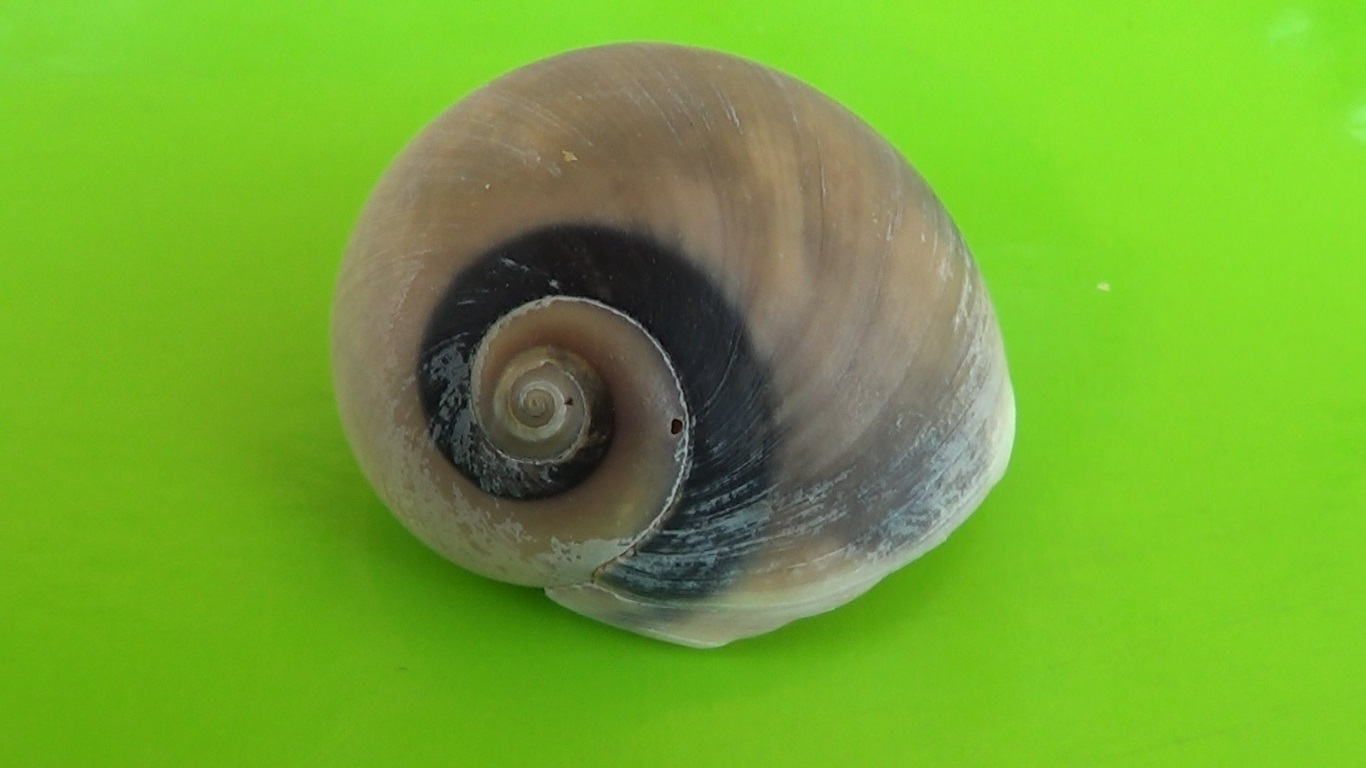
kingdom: Animalia
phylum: Mollusca
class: Gastropoda
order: Littorinimorpha
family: Naticidae
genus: Neverita
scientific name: Neverita josephinia
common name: Josephine's moonsnail
